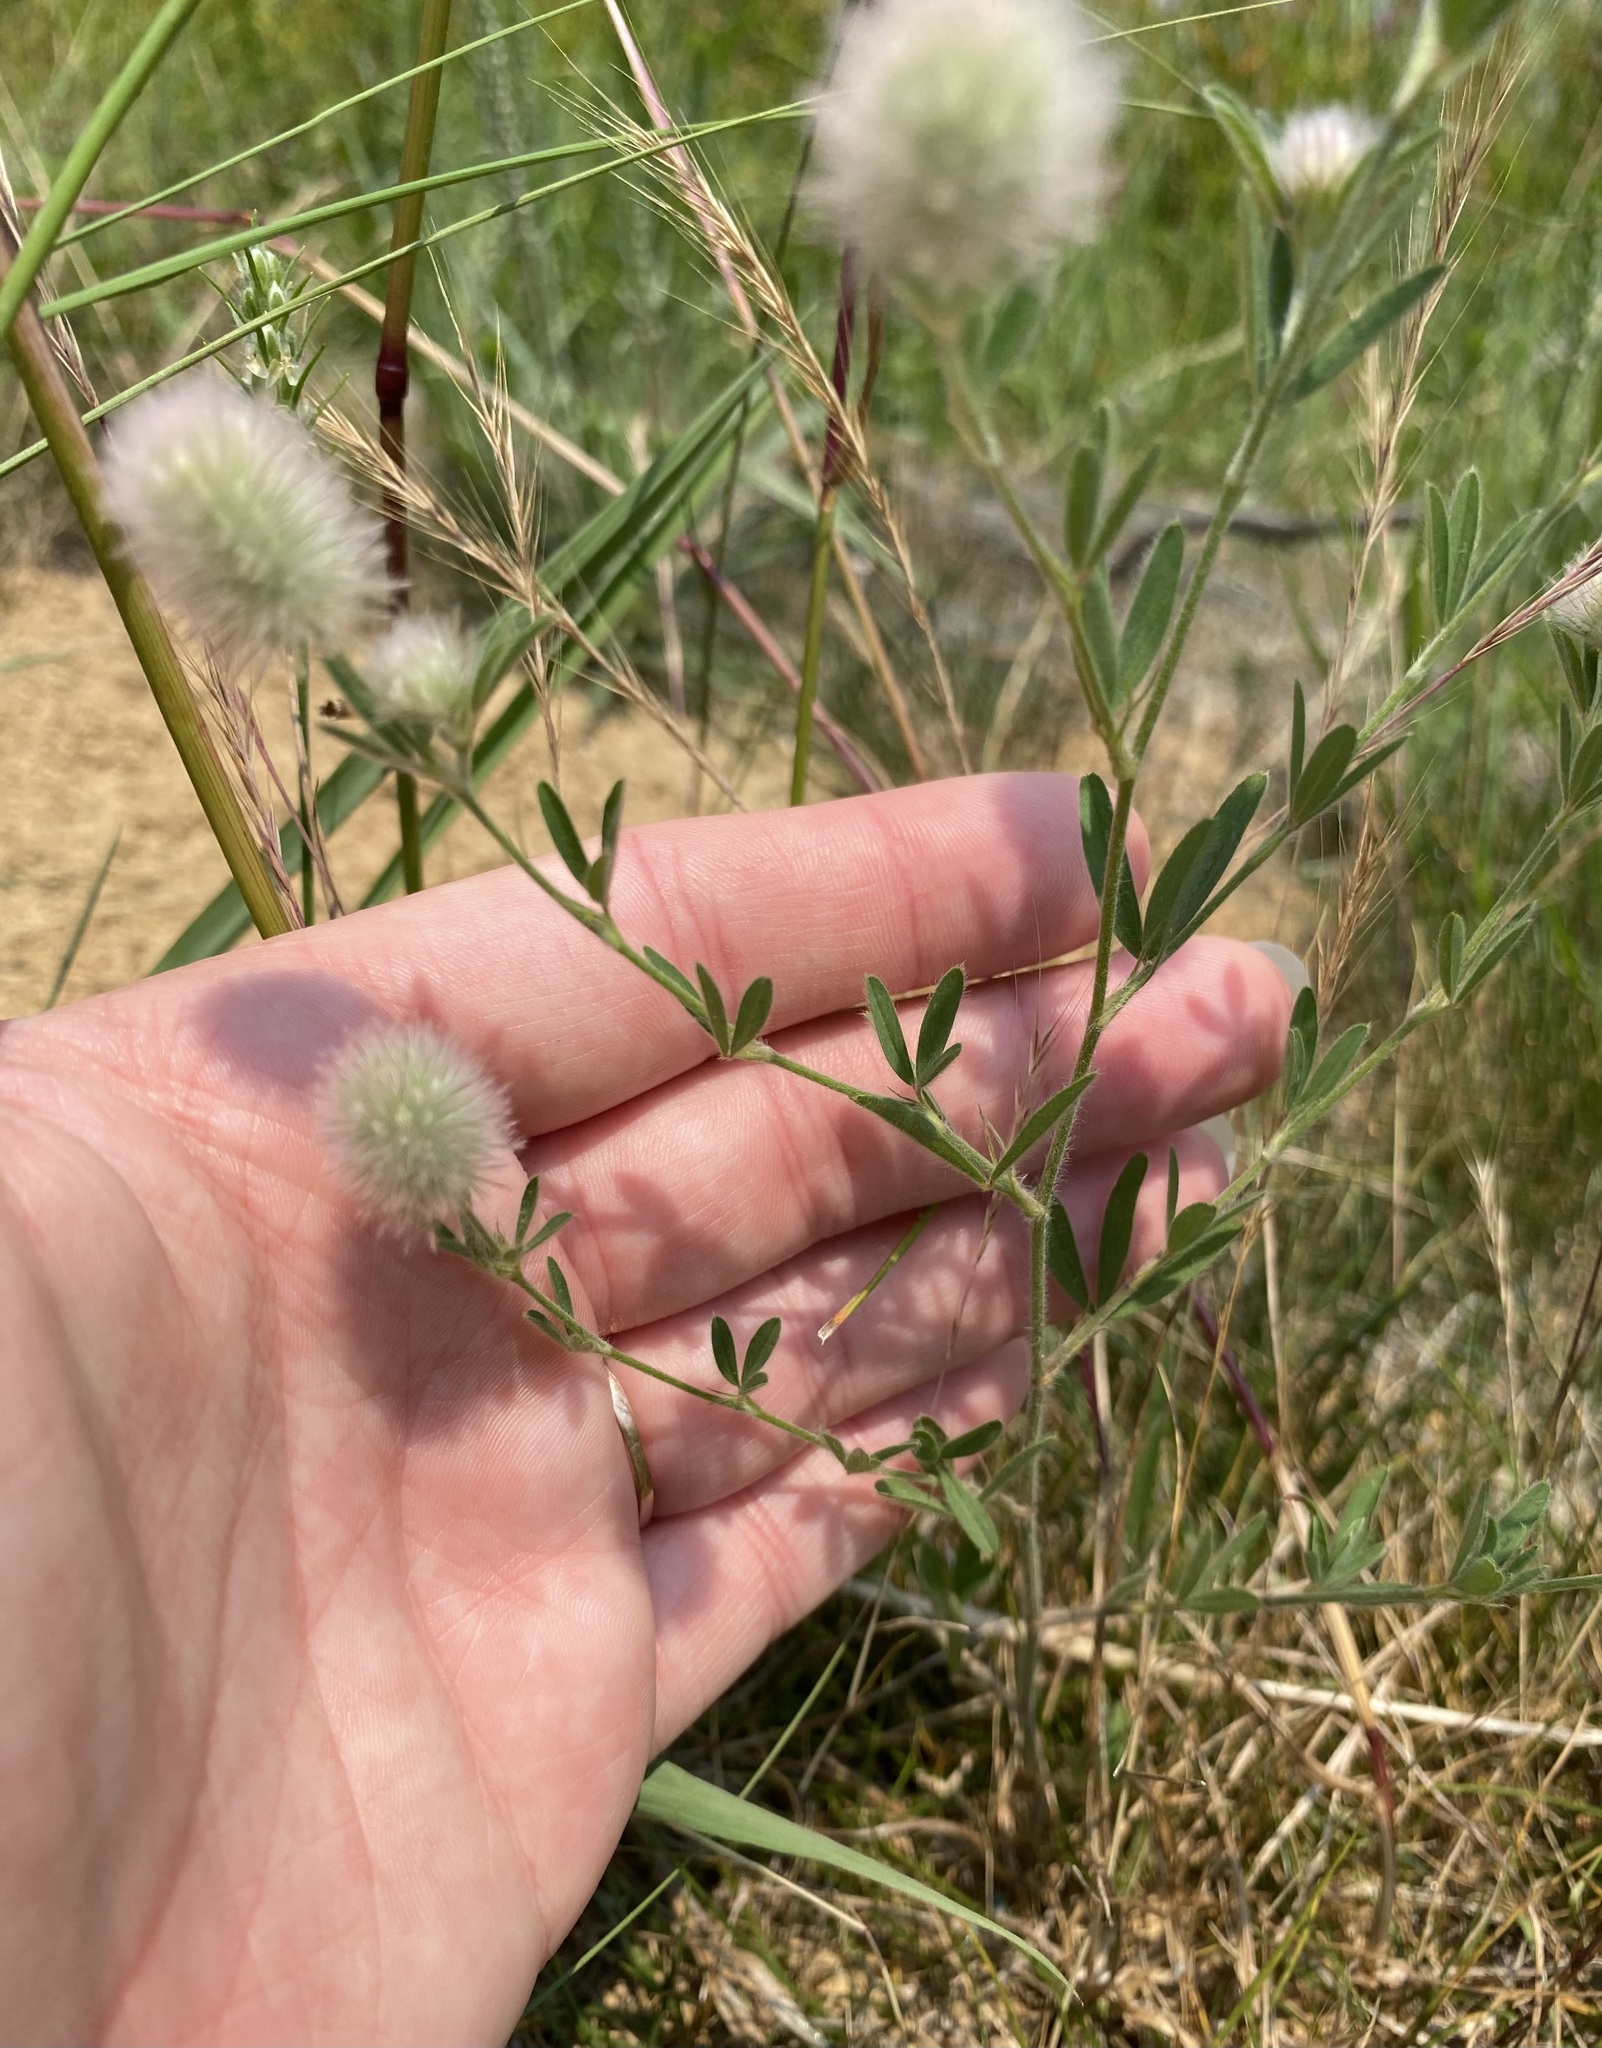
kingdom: Plantae
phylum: Tracheophyta
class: Magnoliopsida
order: Fabales
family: Fabaceae
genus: Trifolium
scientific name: Trifolium arvense
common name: Hare's-foot clover
